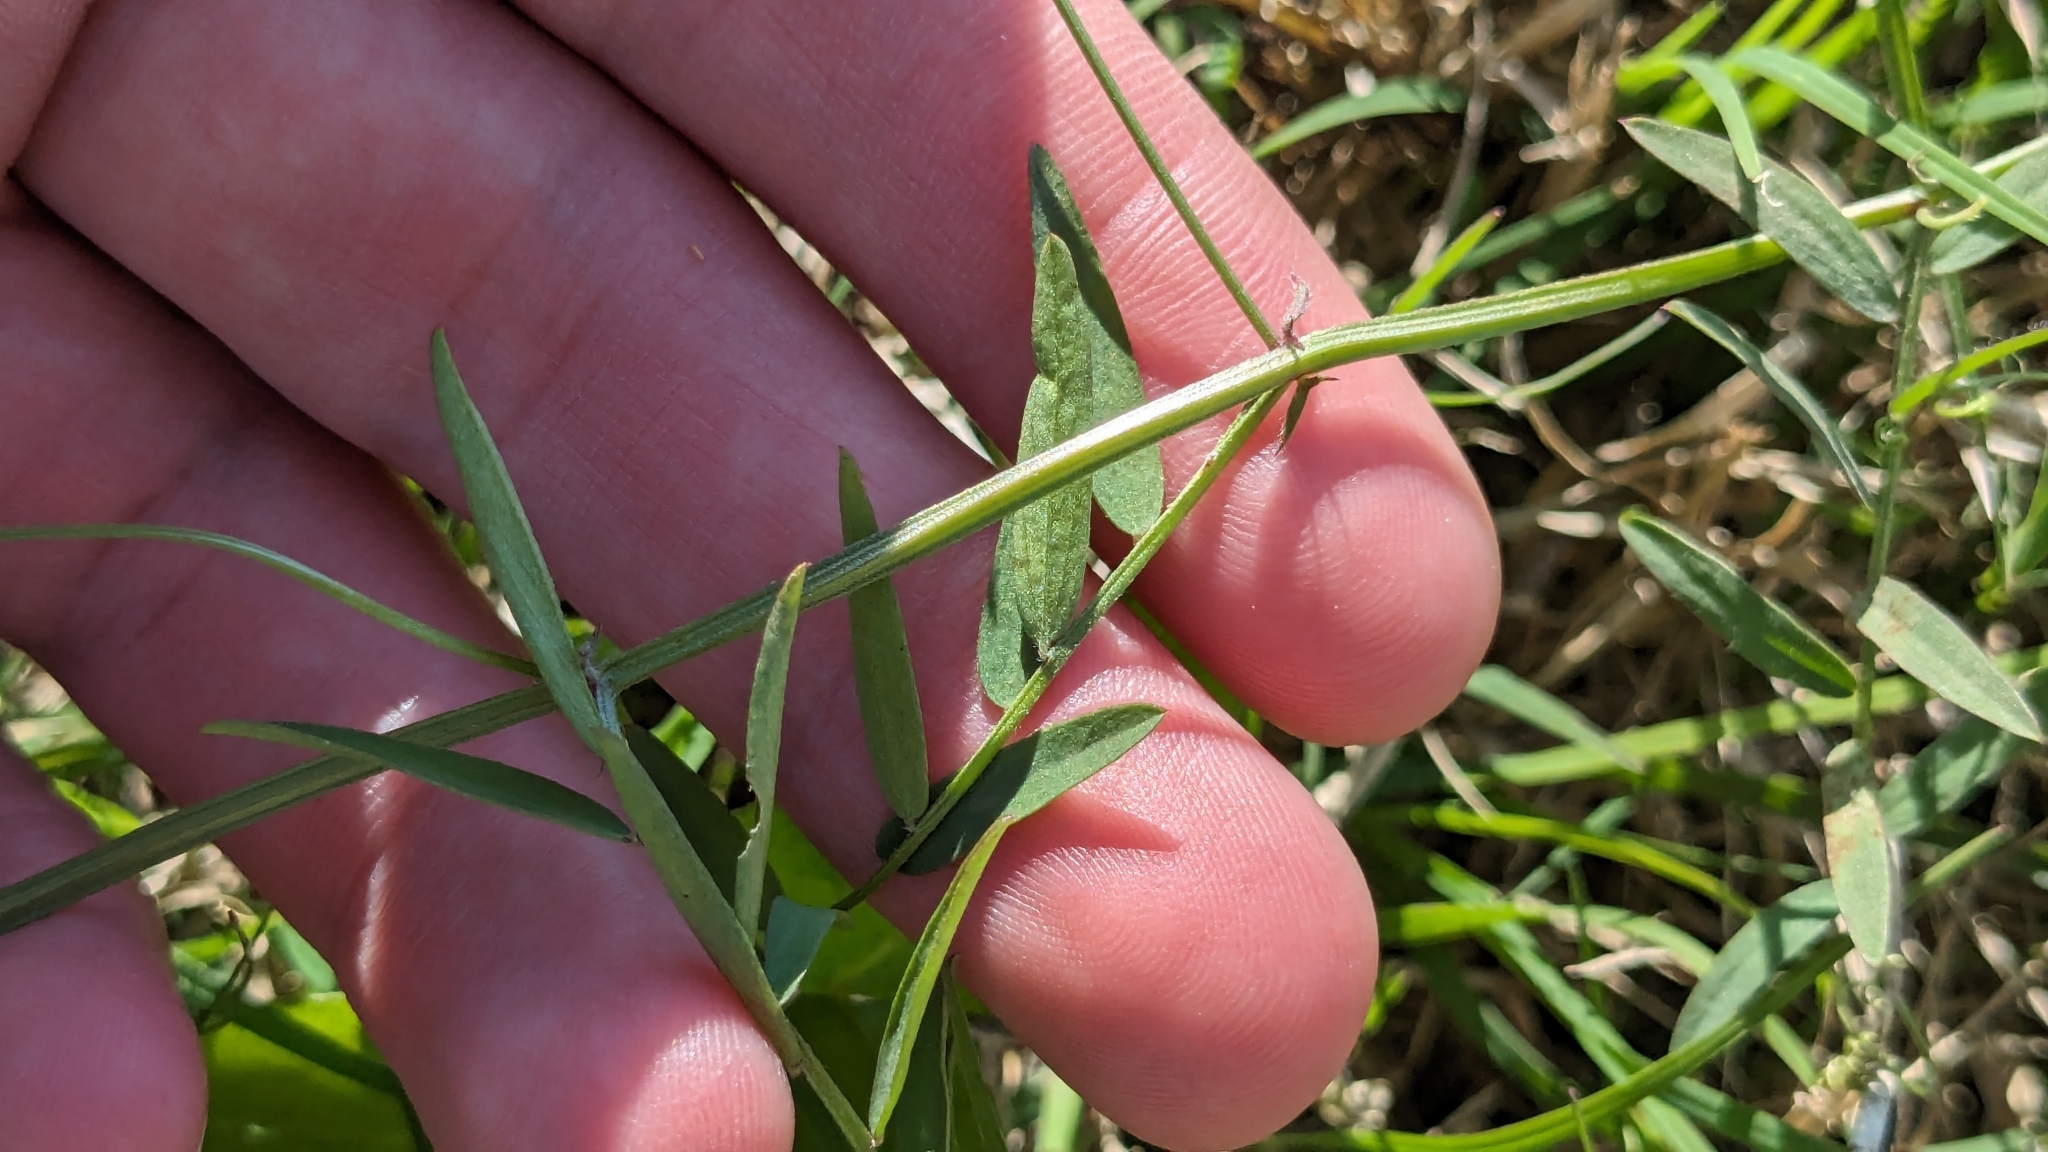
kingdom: Plantae
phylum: Tracheophyta
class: Magnoliopsida
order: Fabales
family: Fabaceae
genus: Vicia
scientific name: Vicia ludoviciana
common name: Louisiana vetch
